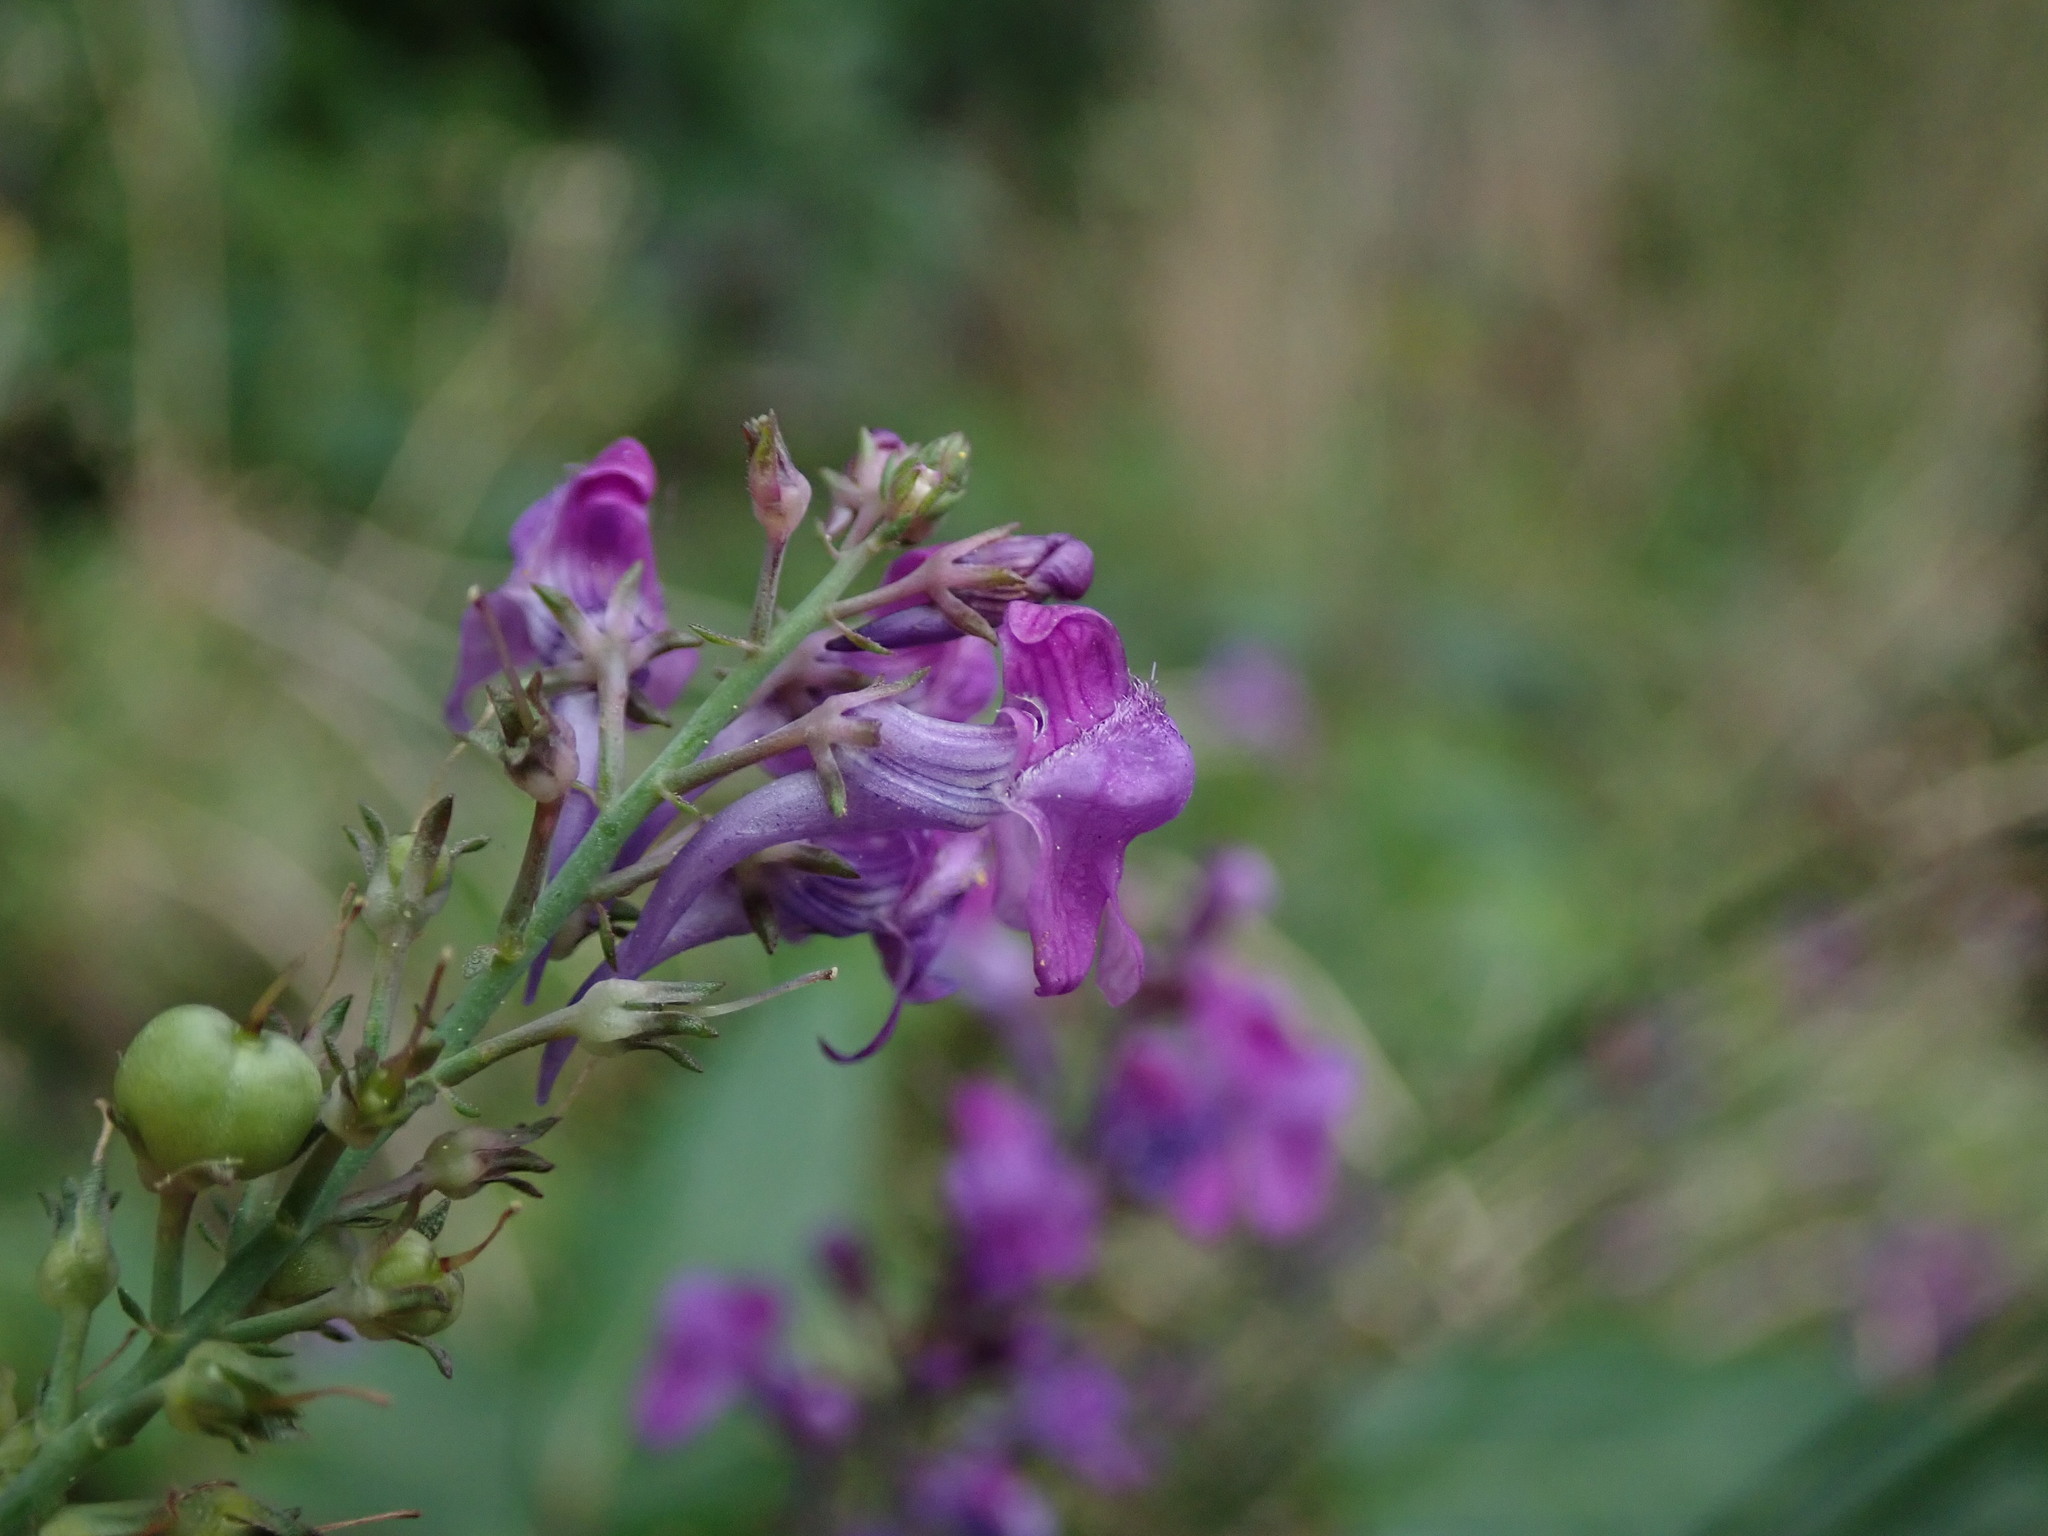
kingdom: Plantae
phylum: Tracheophyta
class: Magnoliopsida
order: Lamiales
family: Plantaginaceae
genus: Linaria
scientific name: Linaria purpurea
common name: Purple toadflax
